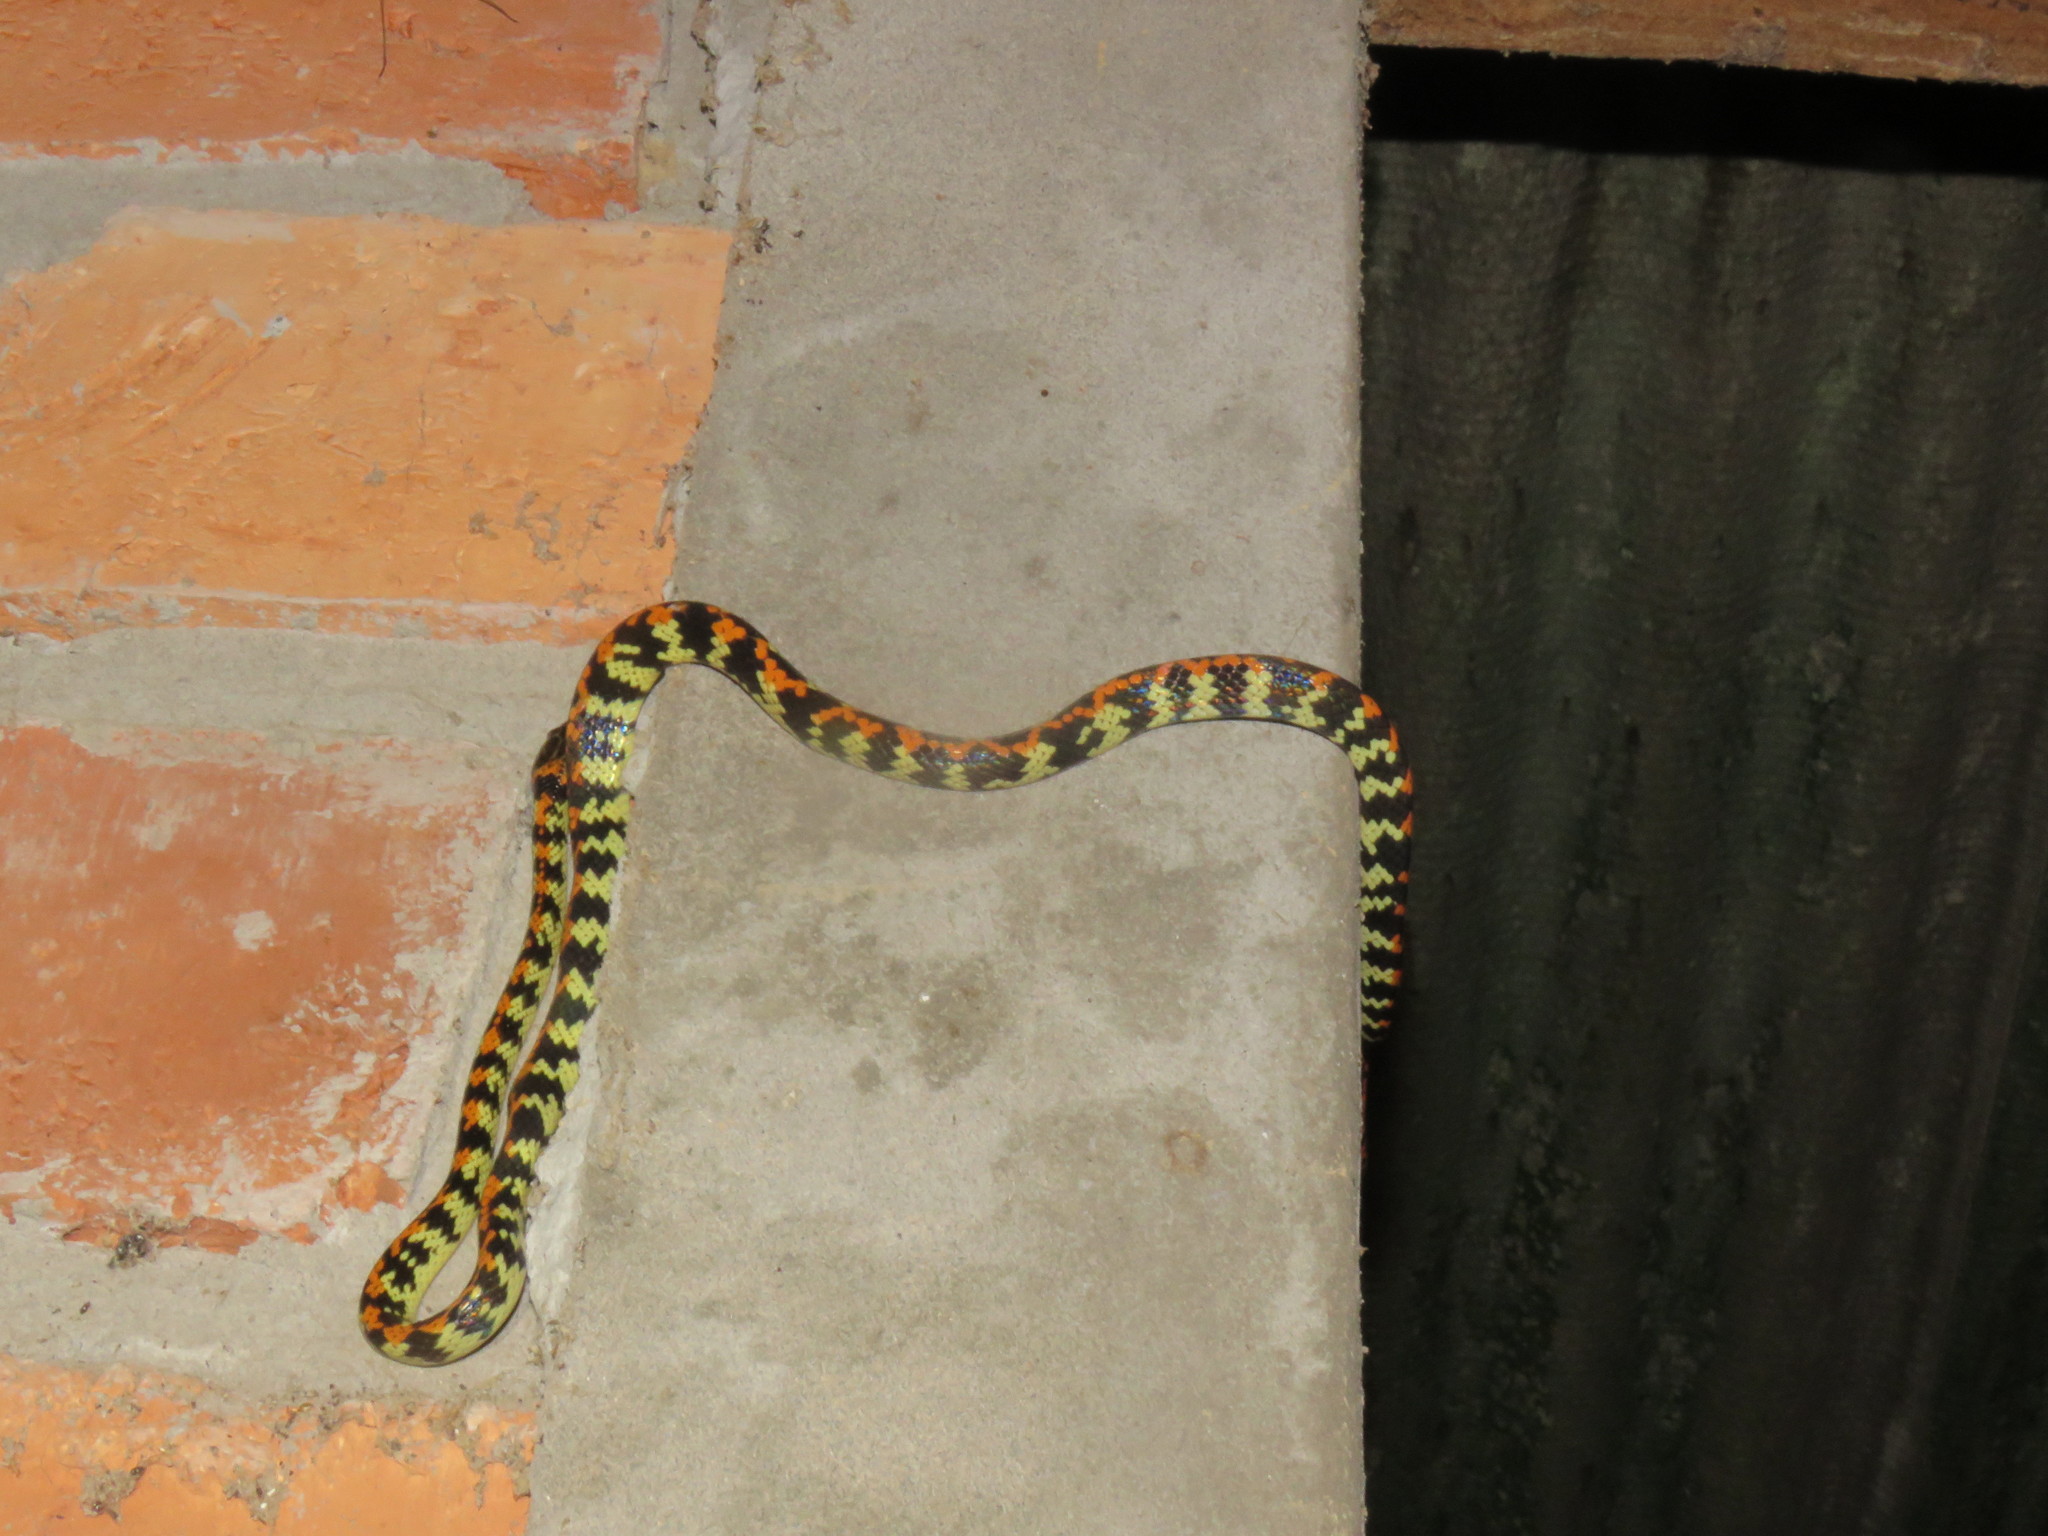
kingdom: Animalia
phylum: Chordata
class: Squamata
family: Colubridae
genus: Siphlophis
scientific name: Siphlophis cervinus
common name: Panama spotted night snake
